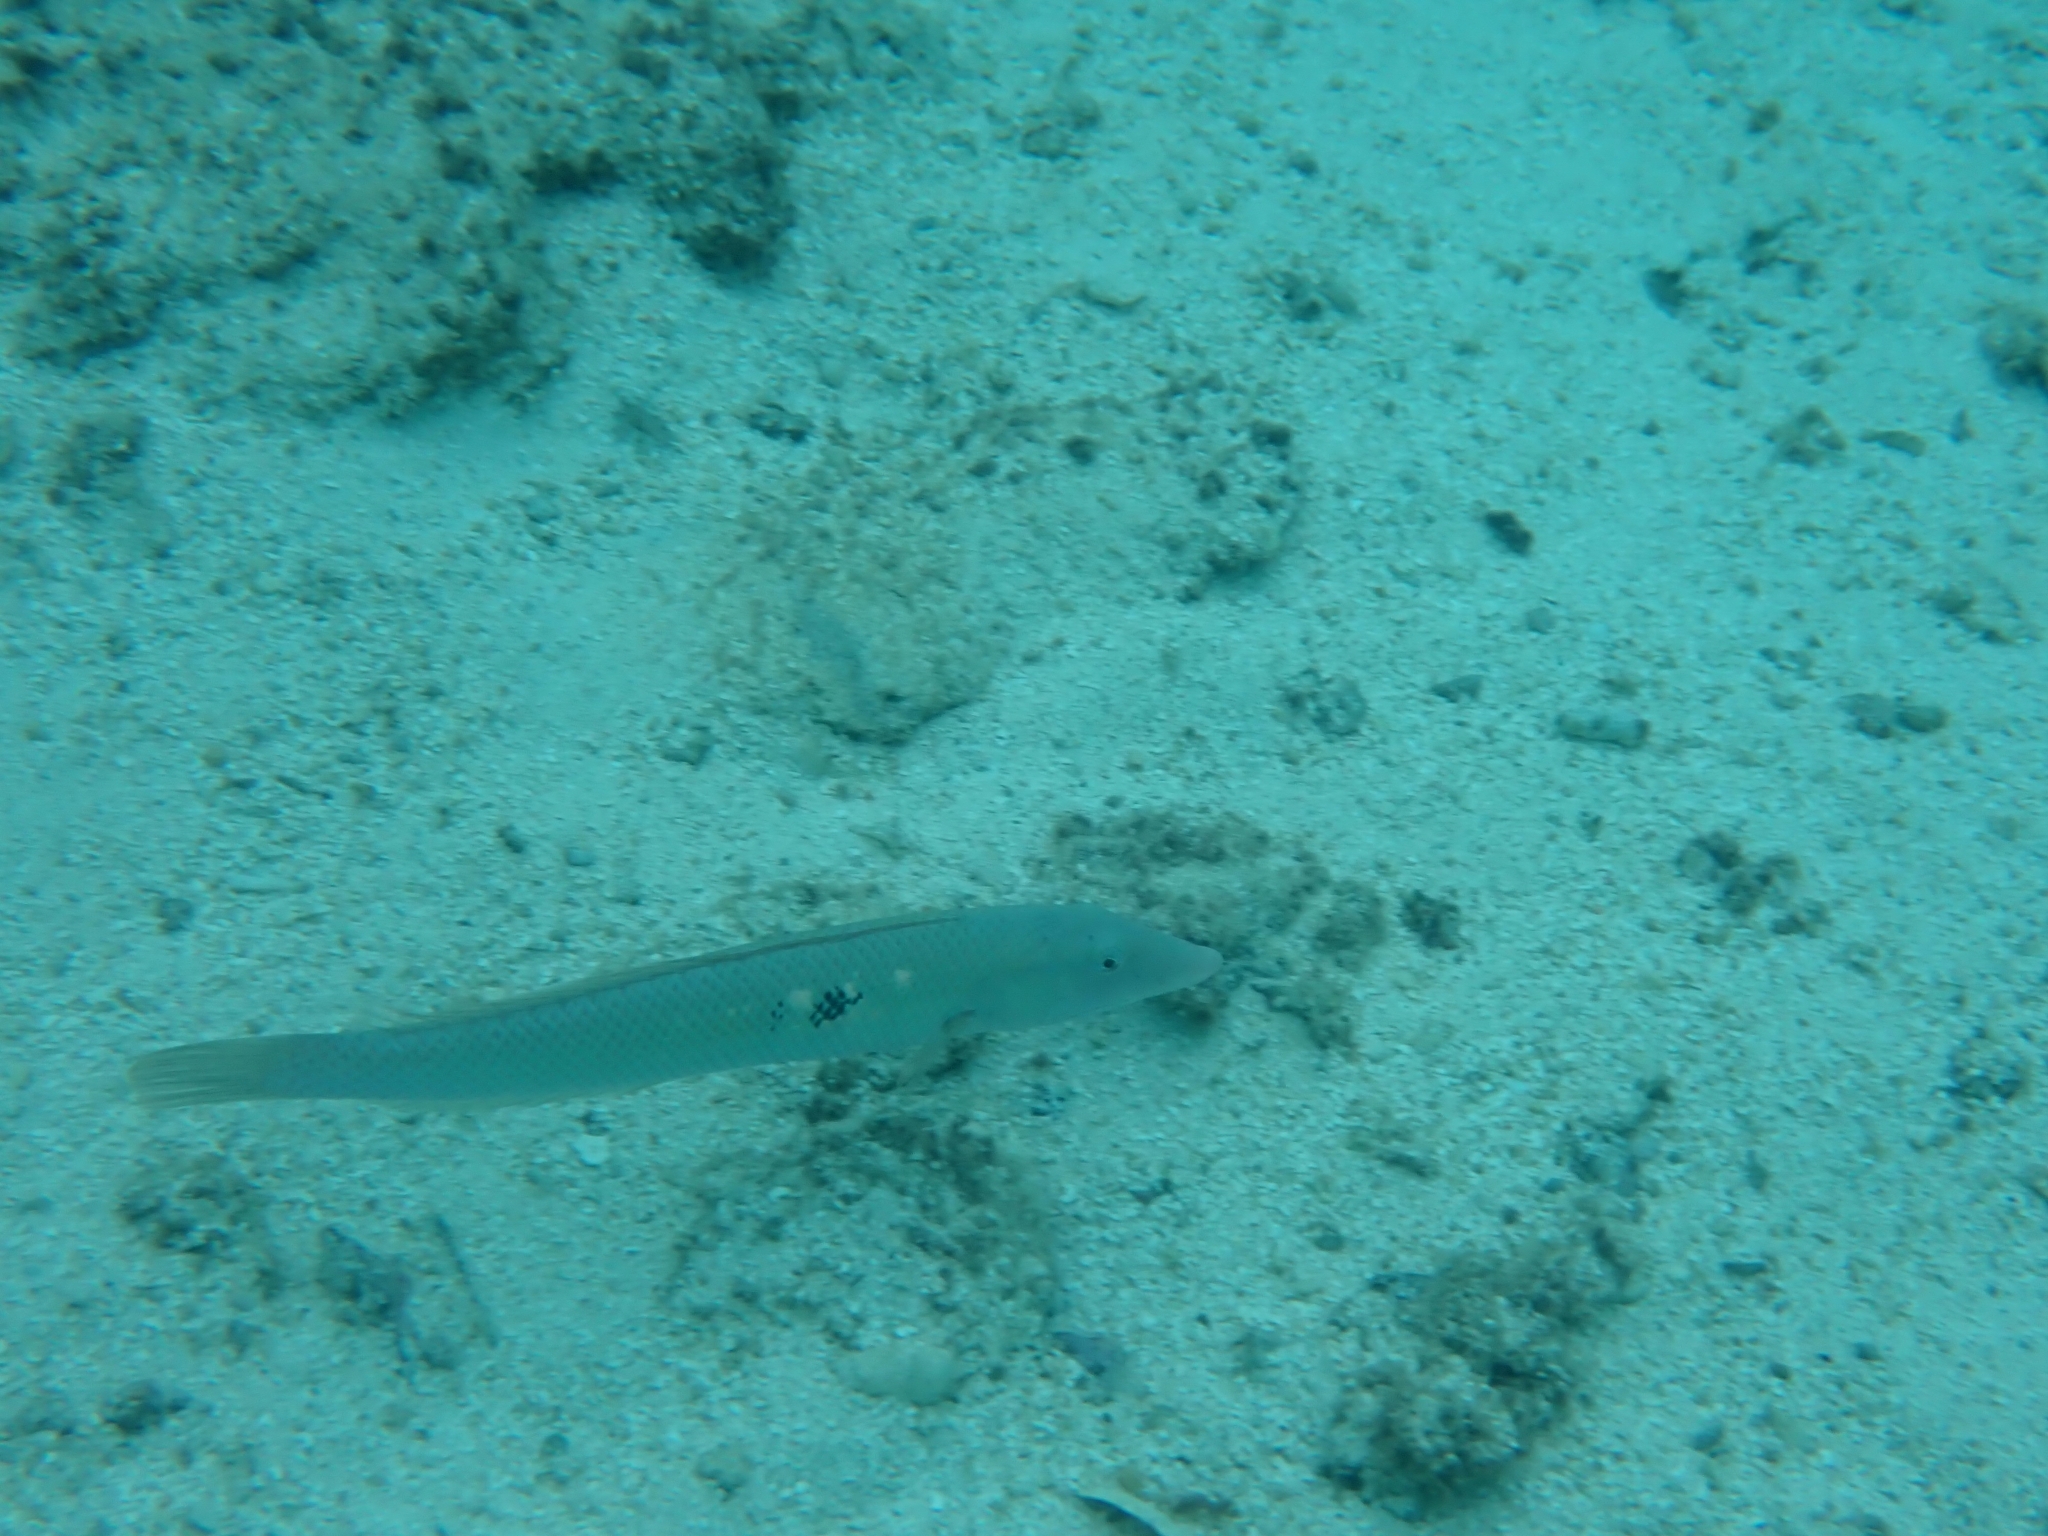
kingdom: Animalia
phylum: Chordata
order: Perciformes
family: Labridae
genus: Cheilio
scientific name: Cheilio inermis
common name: Cigar wrasse
